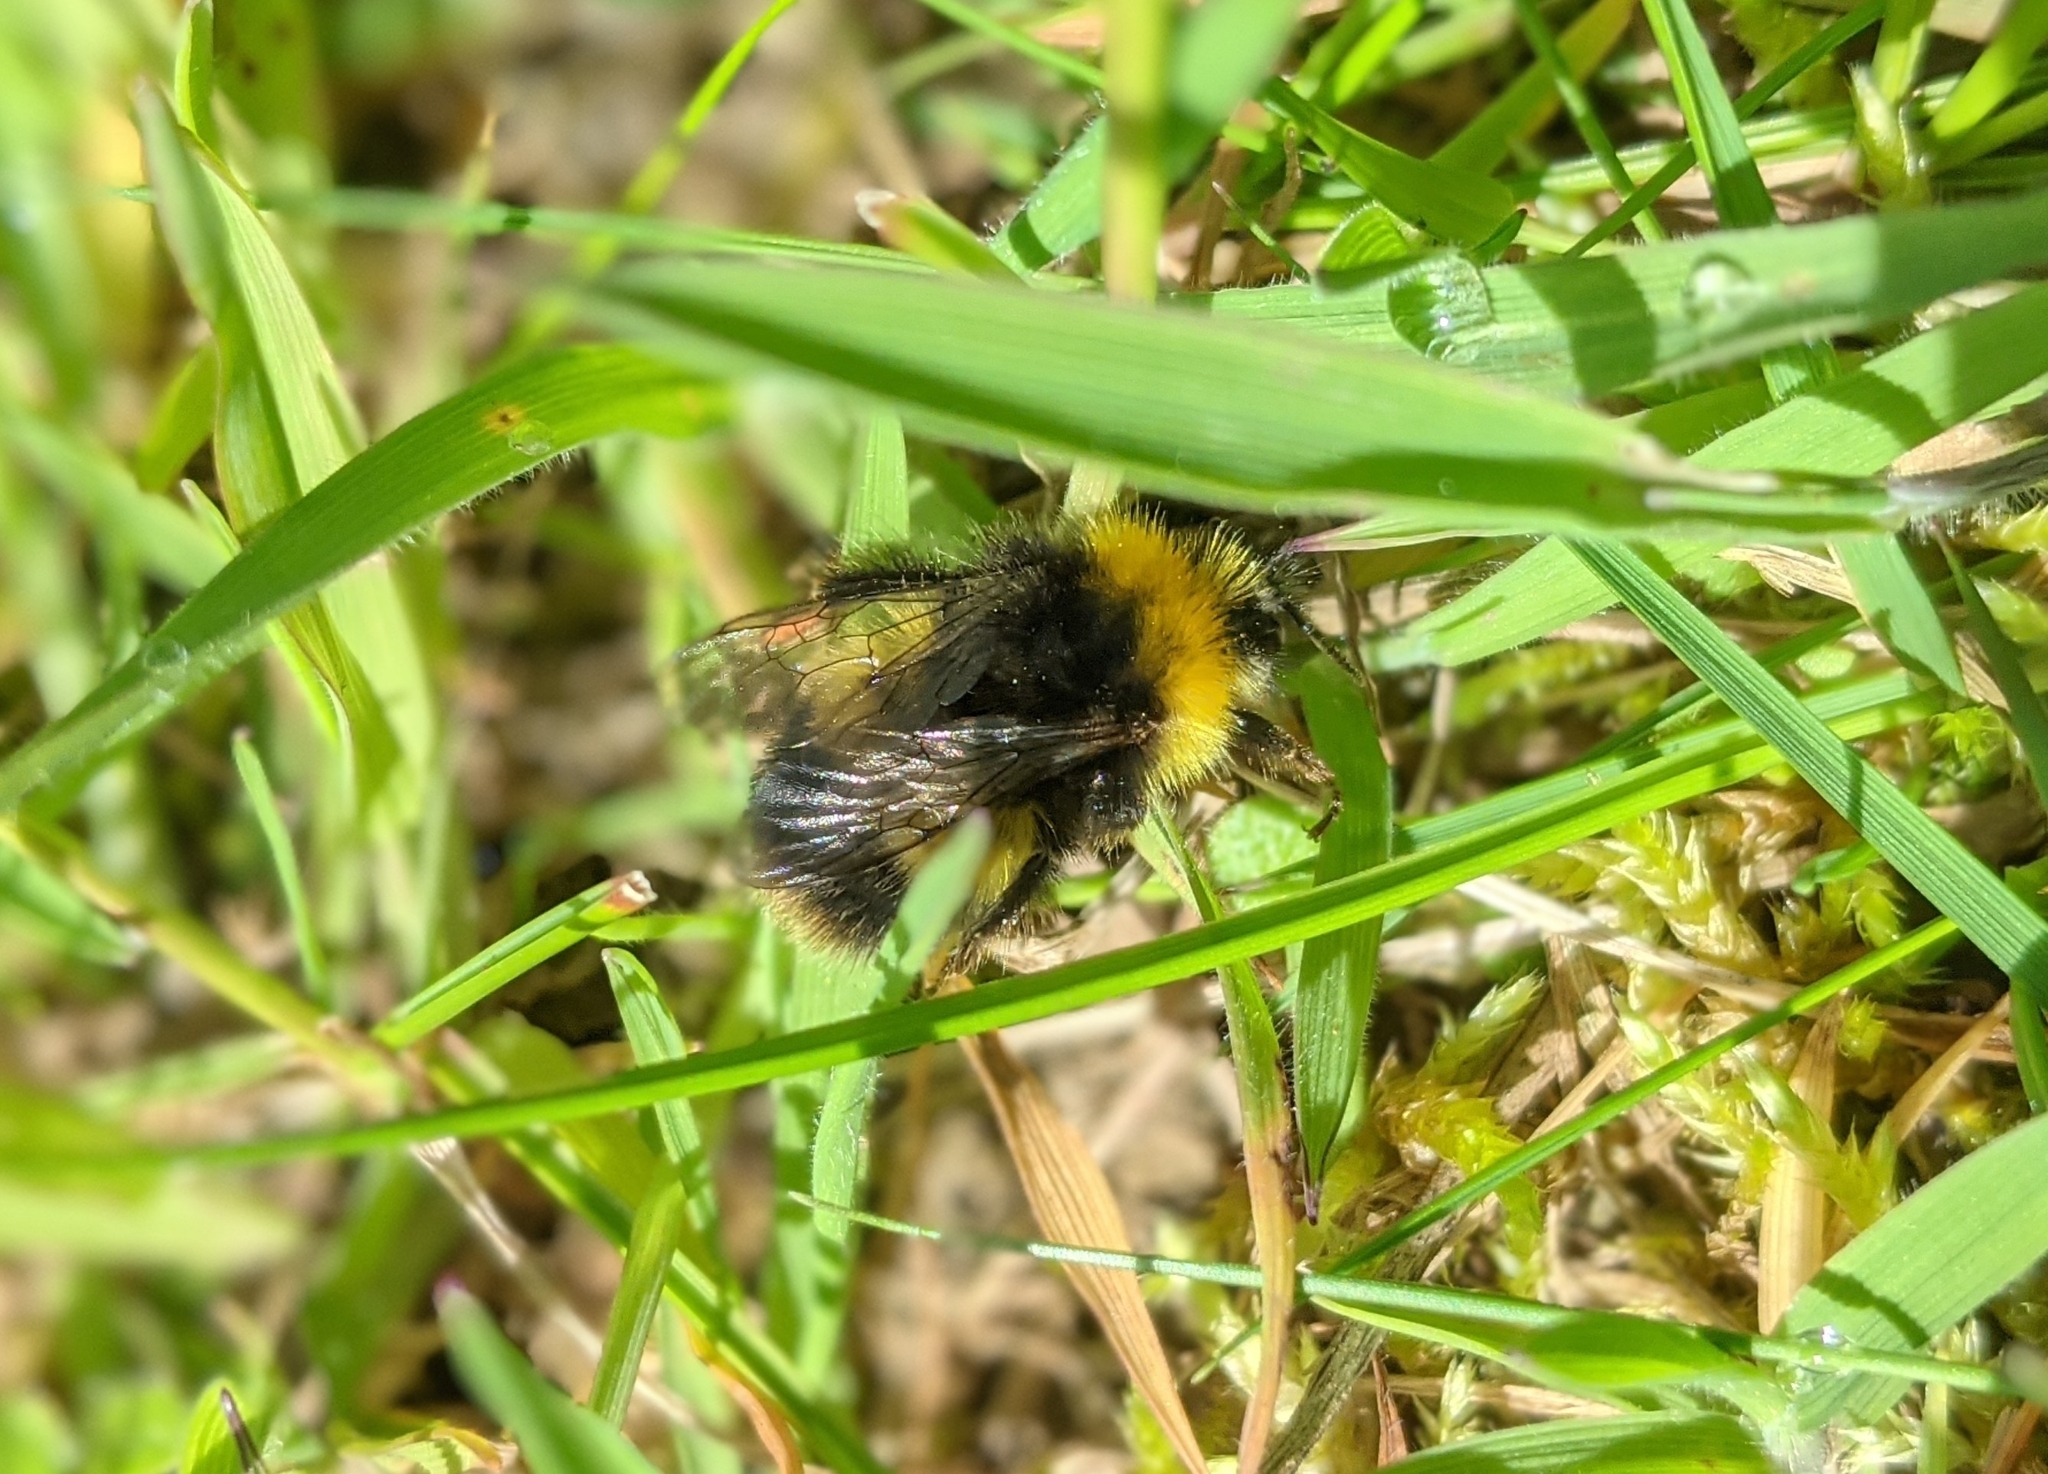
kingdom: Animalia
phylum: Arthropoda
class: Insecta
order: Hymenoptera
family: Apidae
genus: Bombus
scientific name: Bombus pratorum
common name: Early humble-bee
